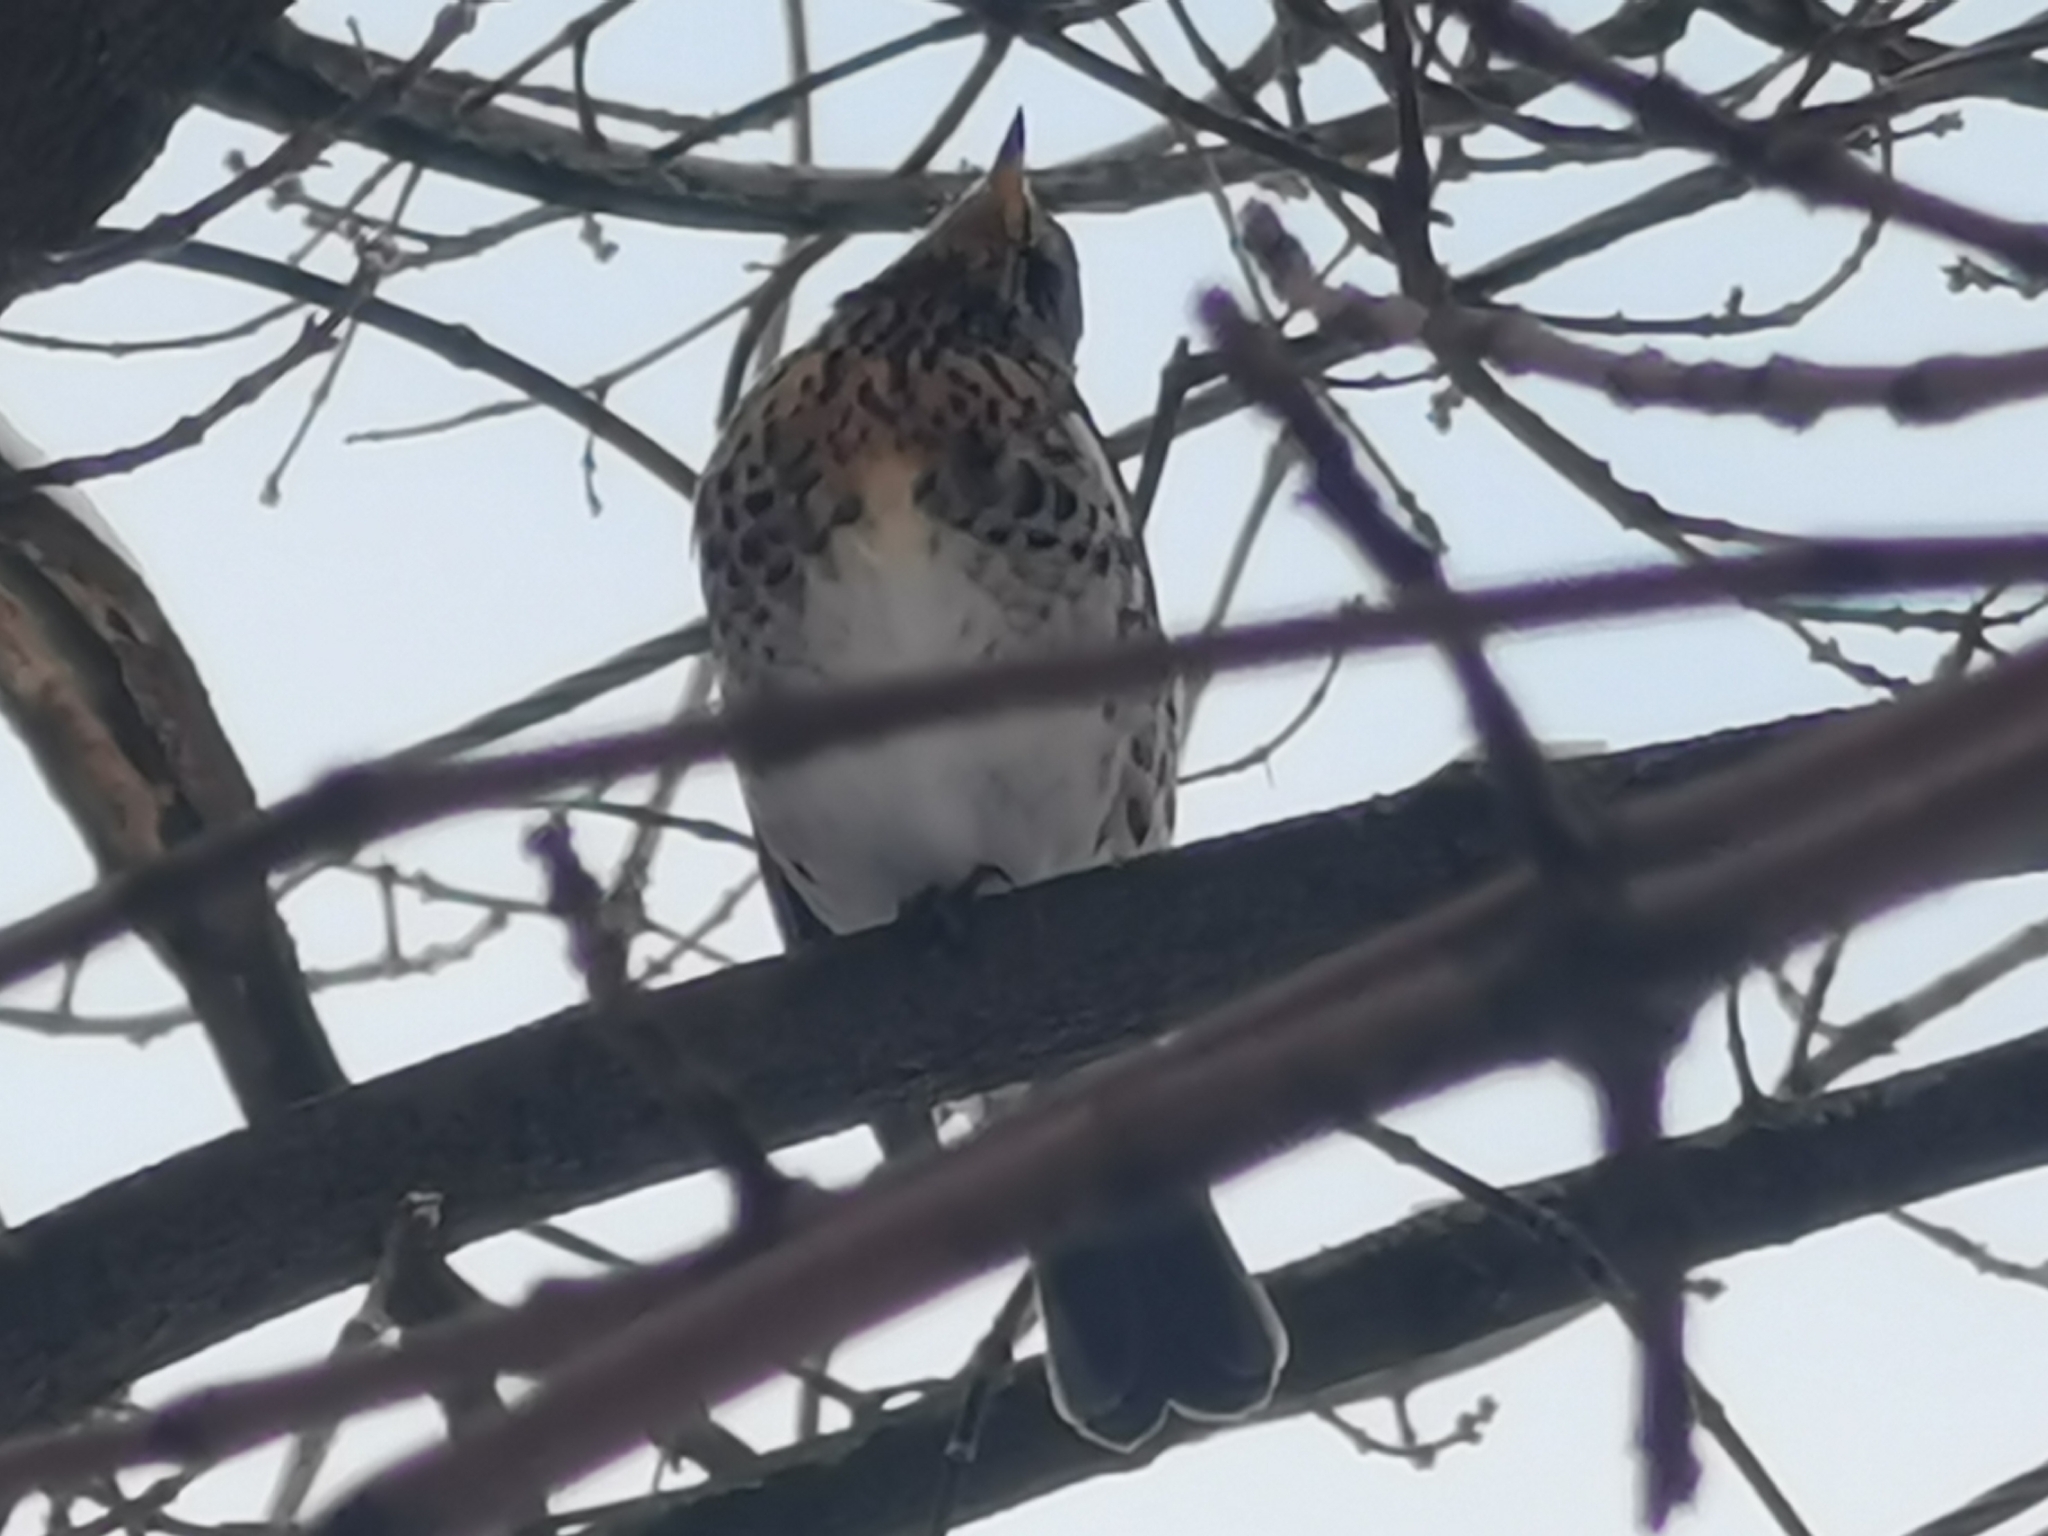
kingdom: Animalia
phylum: Chordata
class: Aves
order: Passeriformes
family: Turdidae
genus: Turdus
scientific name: Turdus pilaris
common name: Fieldfare
